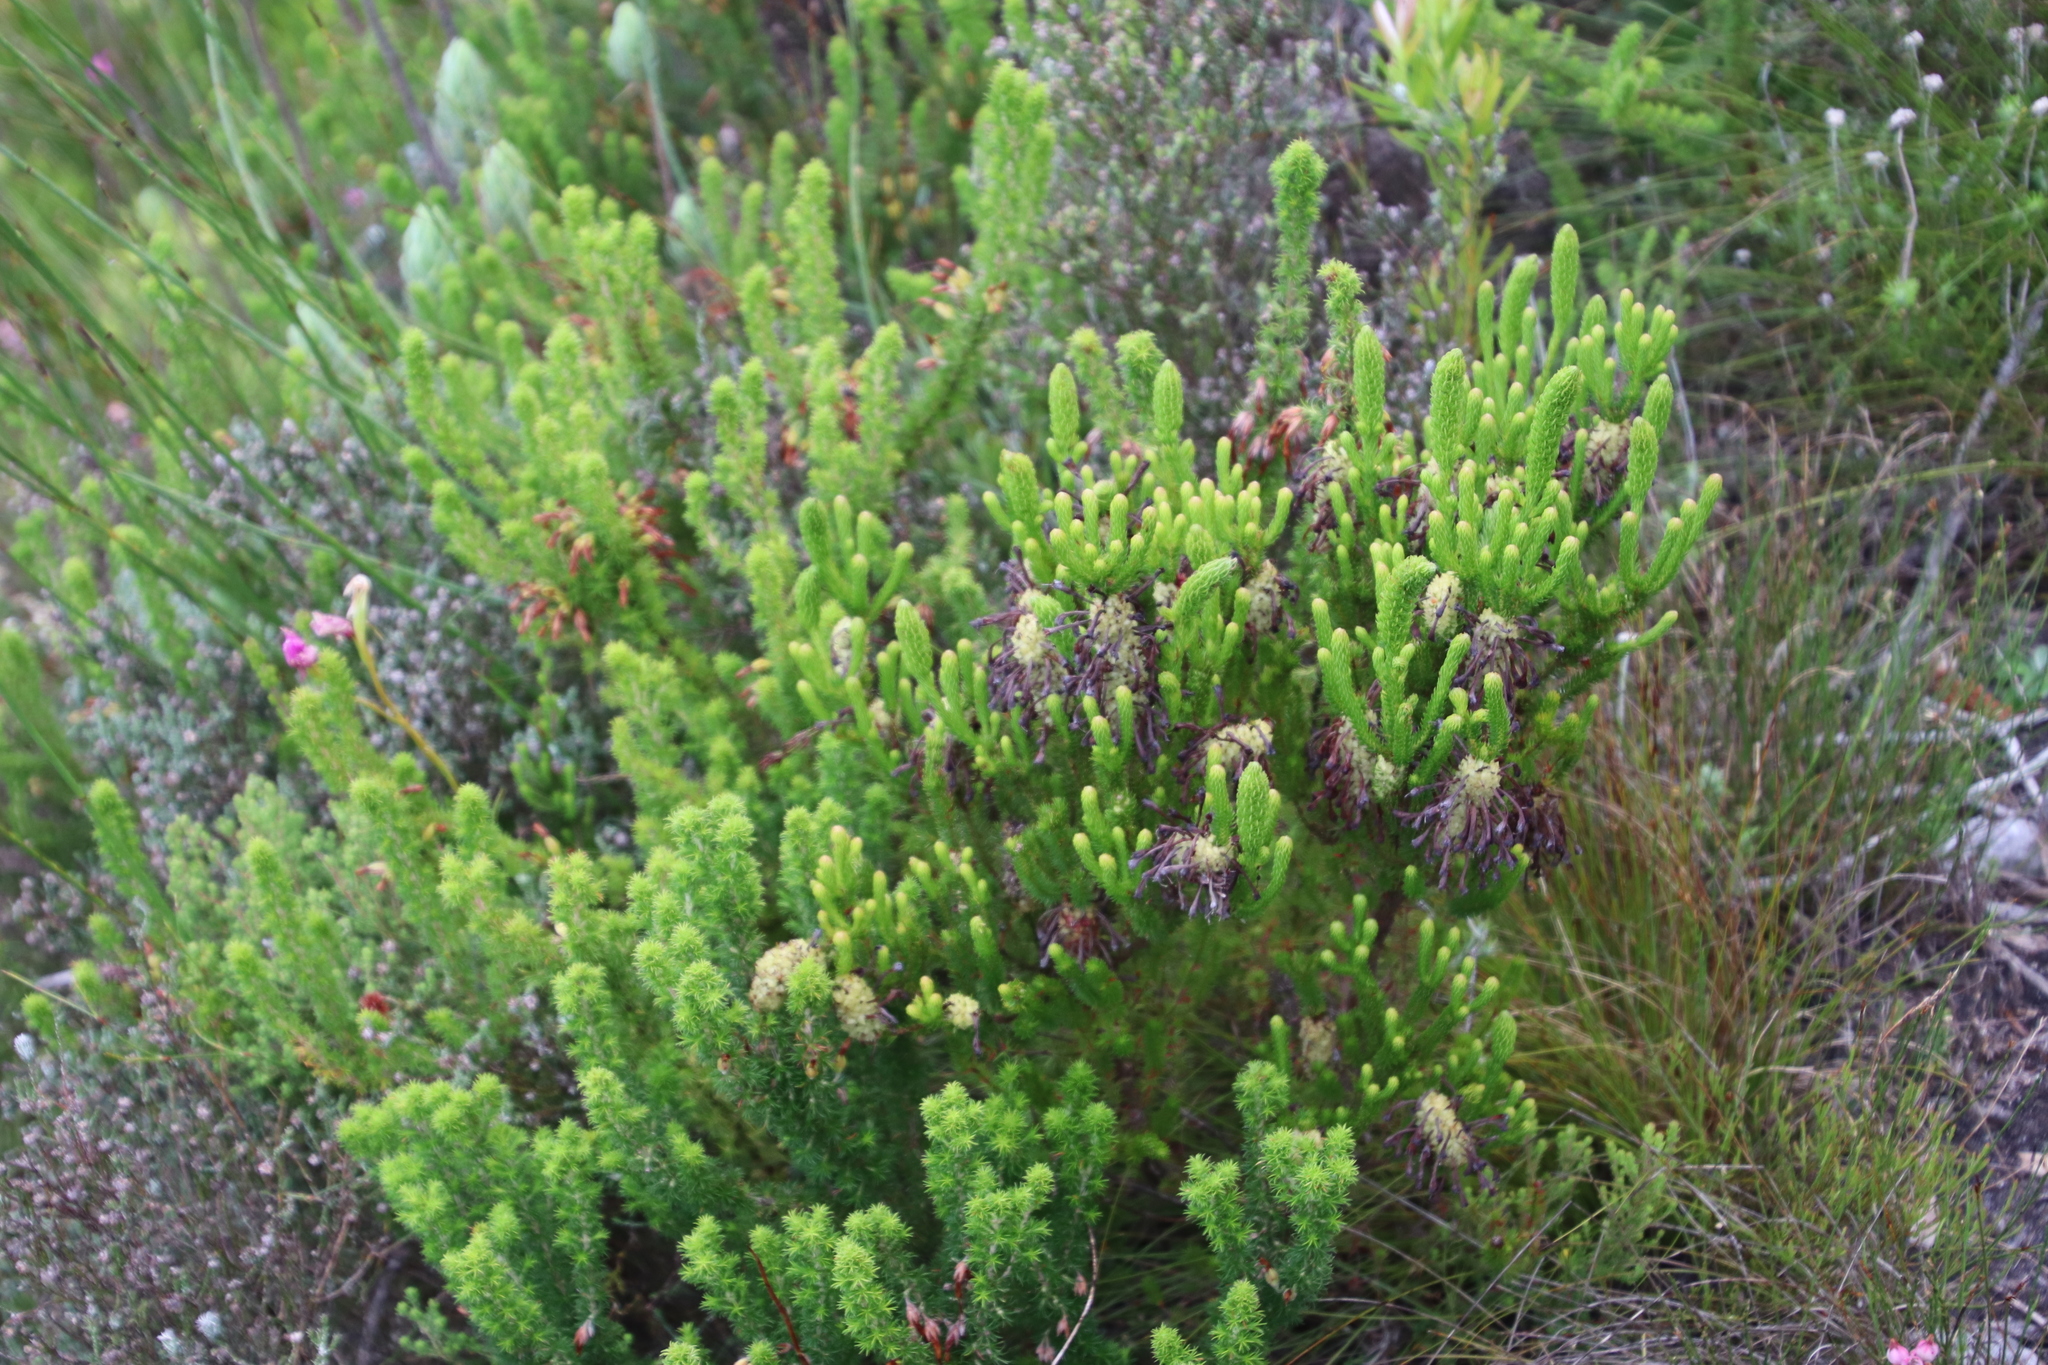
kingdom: Plantae
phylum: Tracheophyta
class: Magnoliopsida
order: Ericales
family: Ericaceae
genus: Erica
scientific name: Erica sessiliflora
